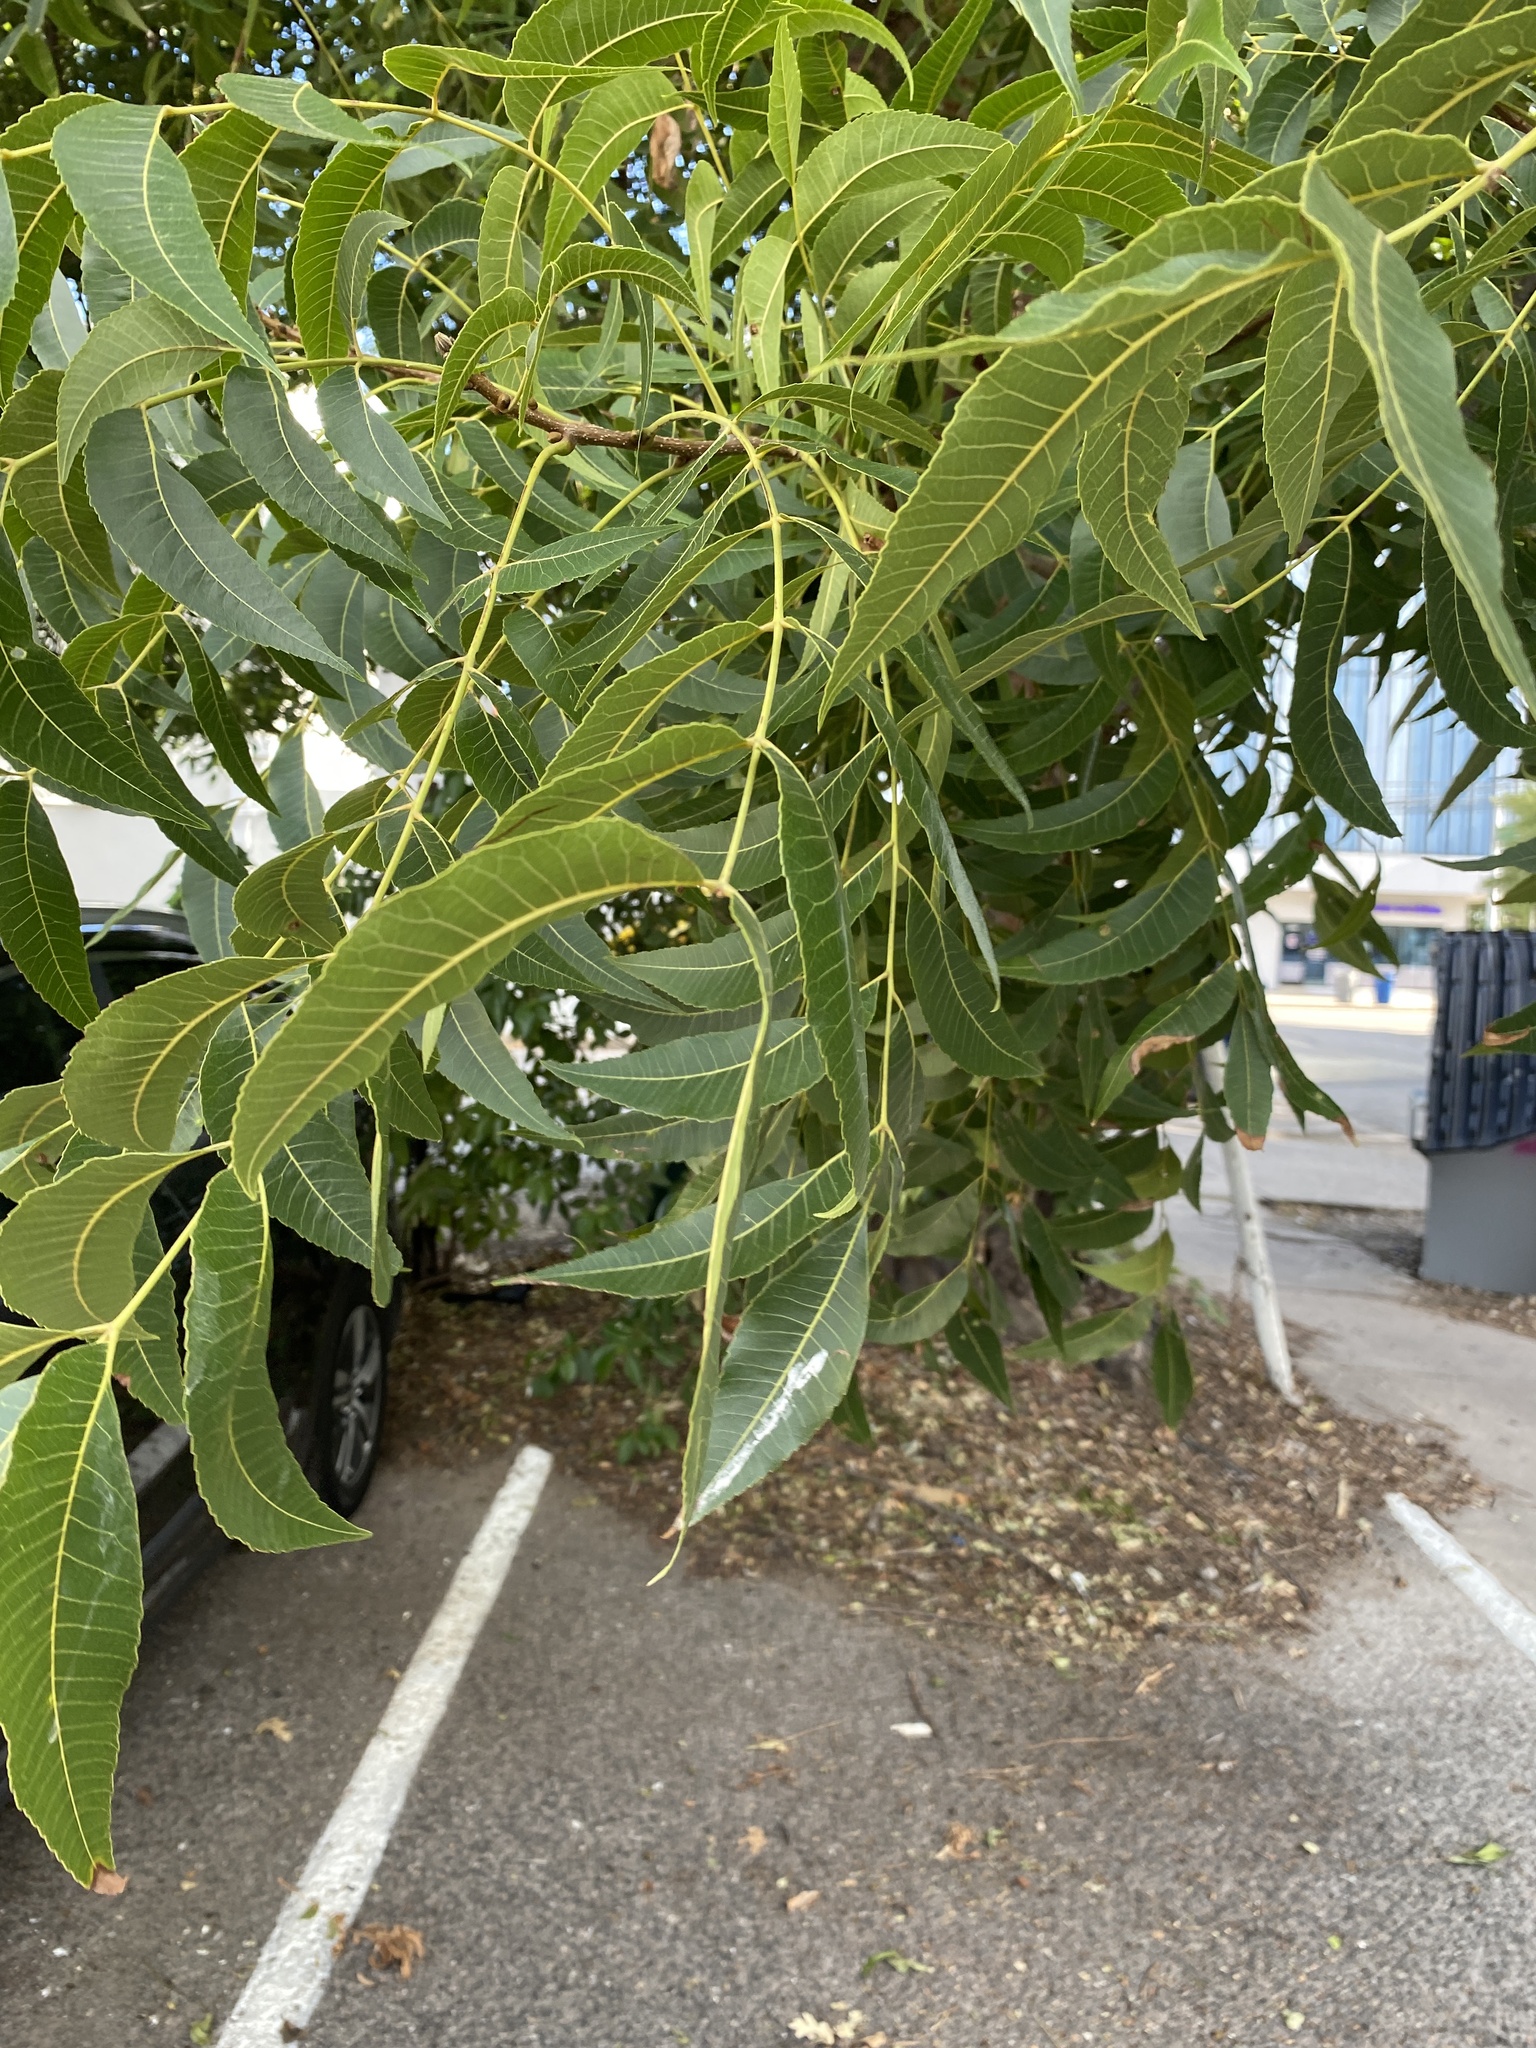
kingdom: Plantae
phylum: Tracheophyta
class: Magnoliopsida
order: Fagales
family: Juglandaceae
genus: Carya
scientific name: Carya illinoinensis
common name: Pecan
